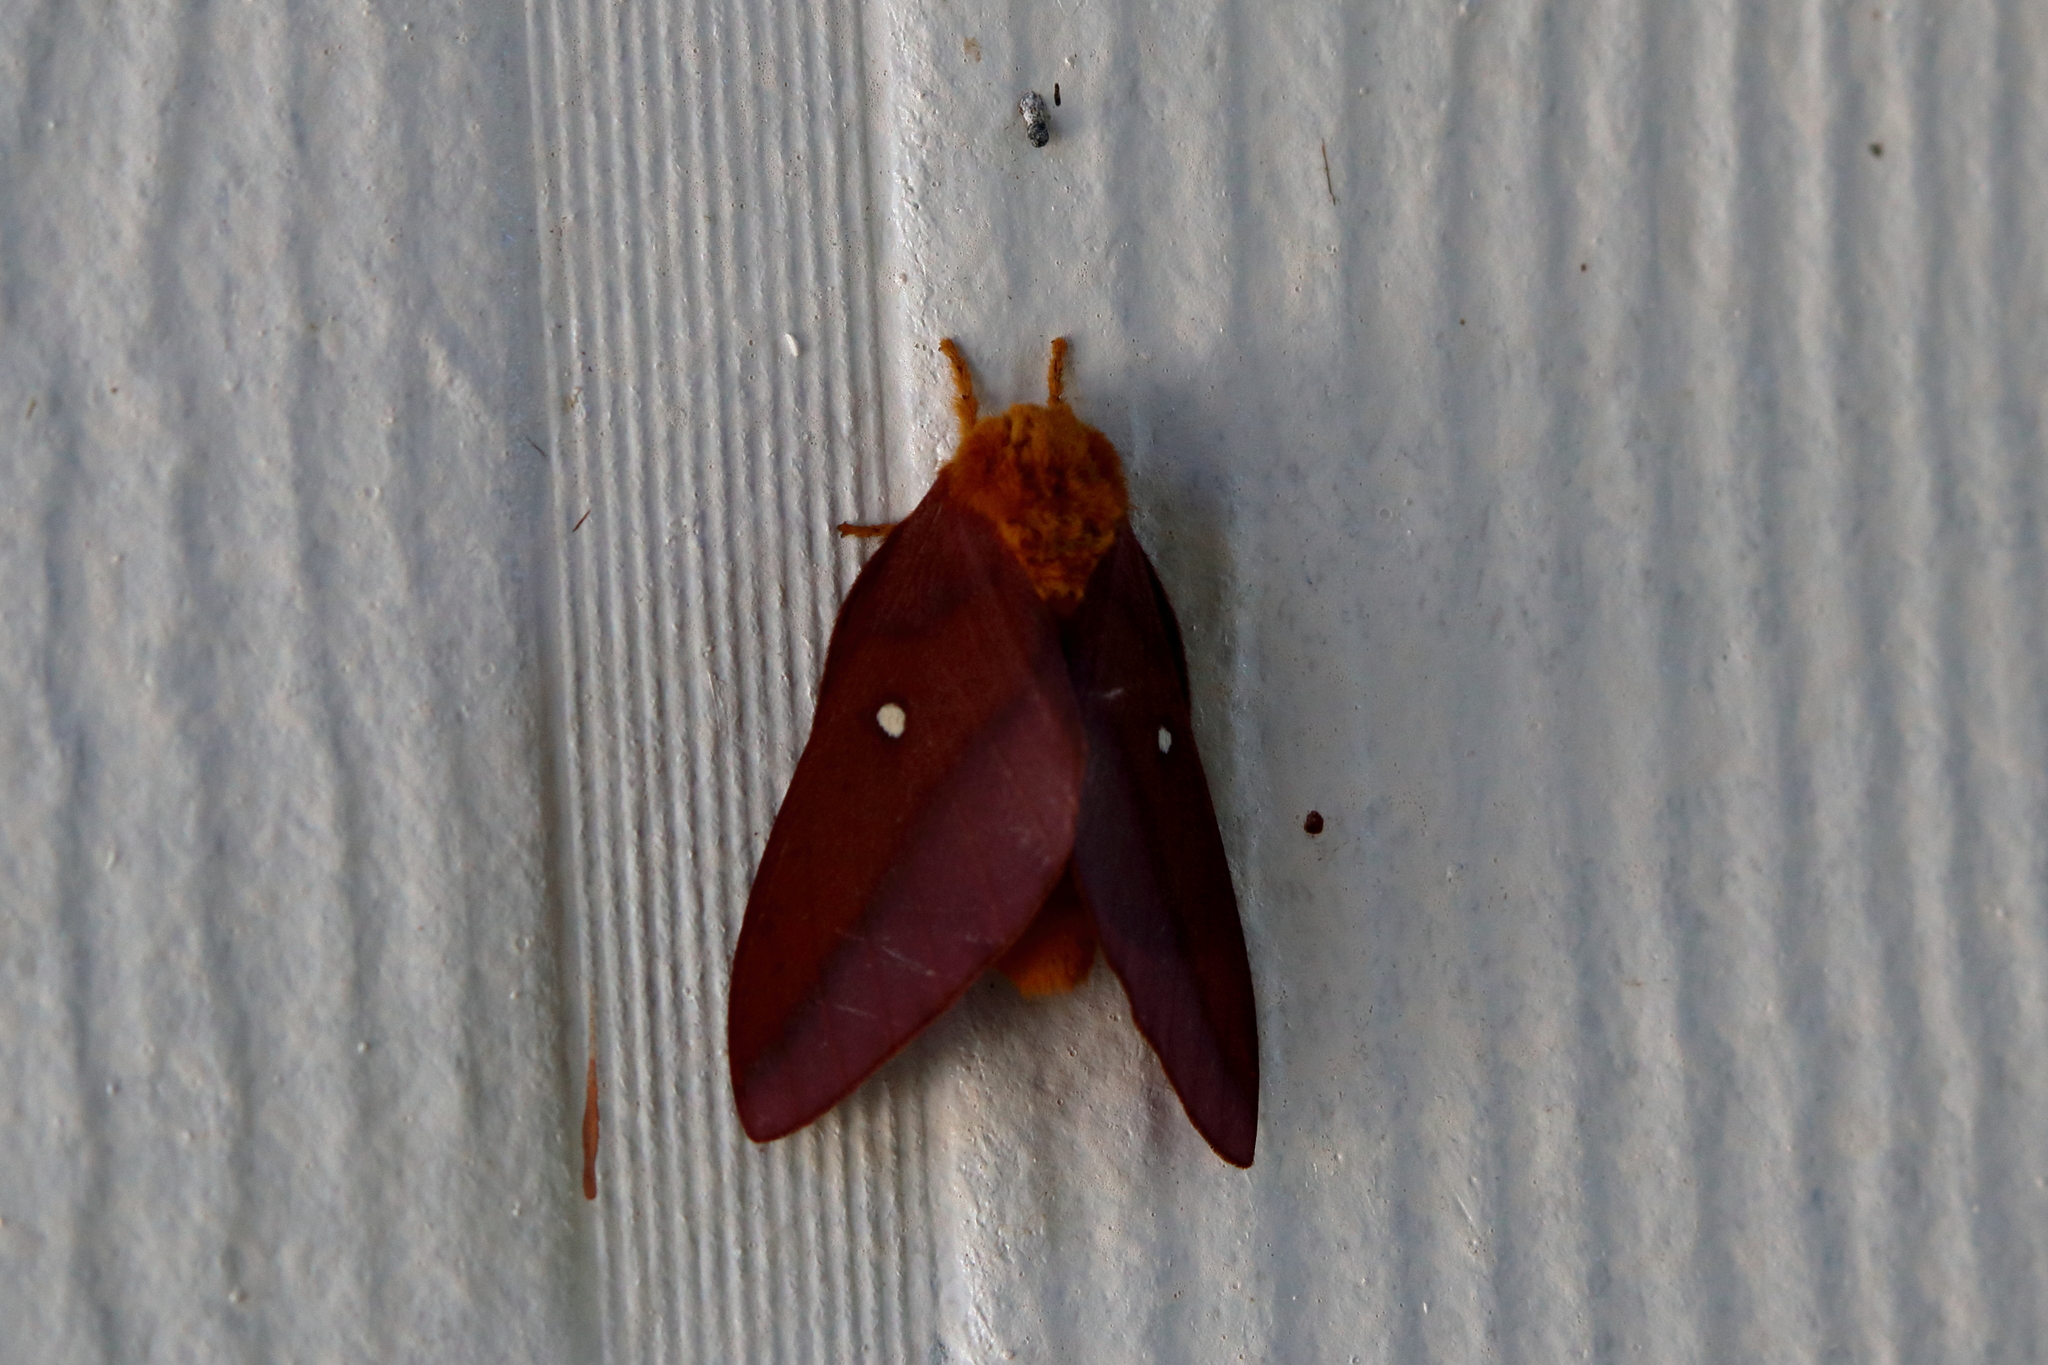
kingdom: Animalia
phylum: Arthropoda
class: Insecta
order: Lepidoptera
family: Saturniidae
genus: Anisota
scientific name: Anisota virginiensis
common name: Pink striped oakworm moth
